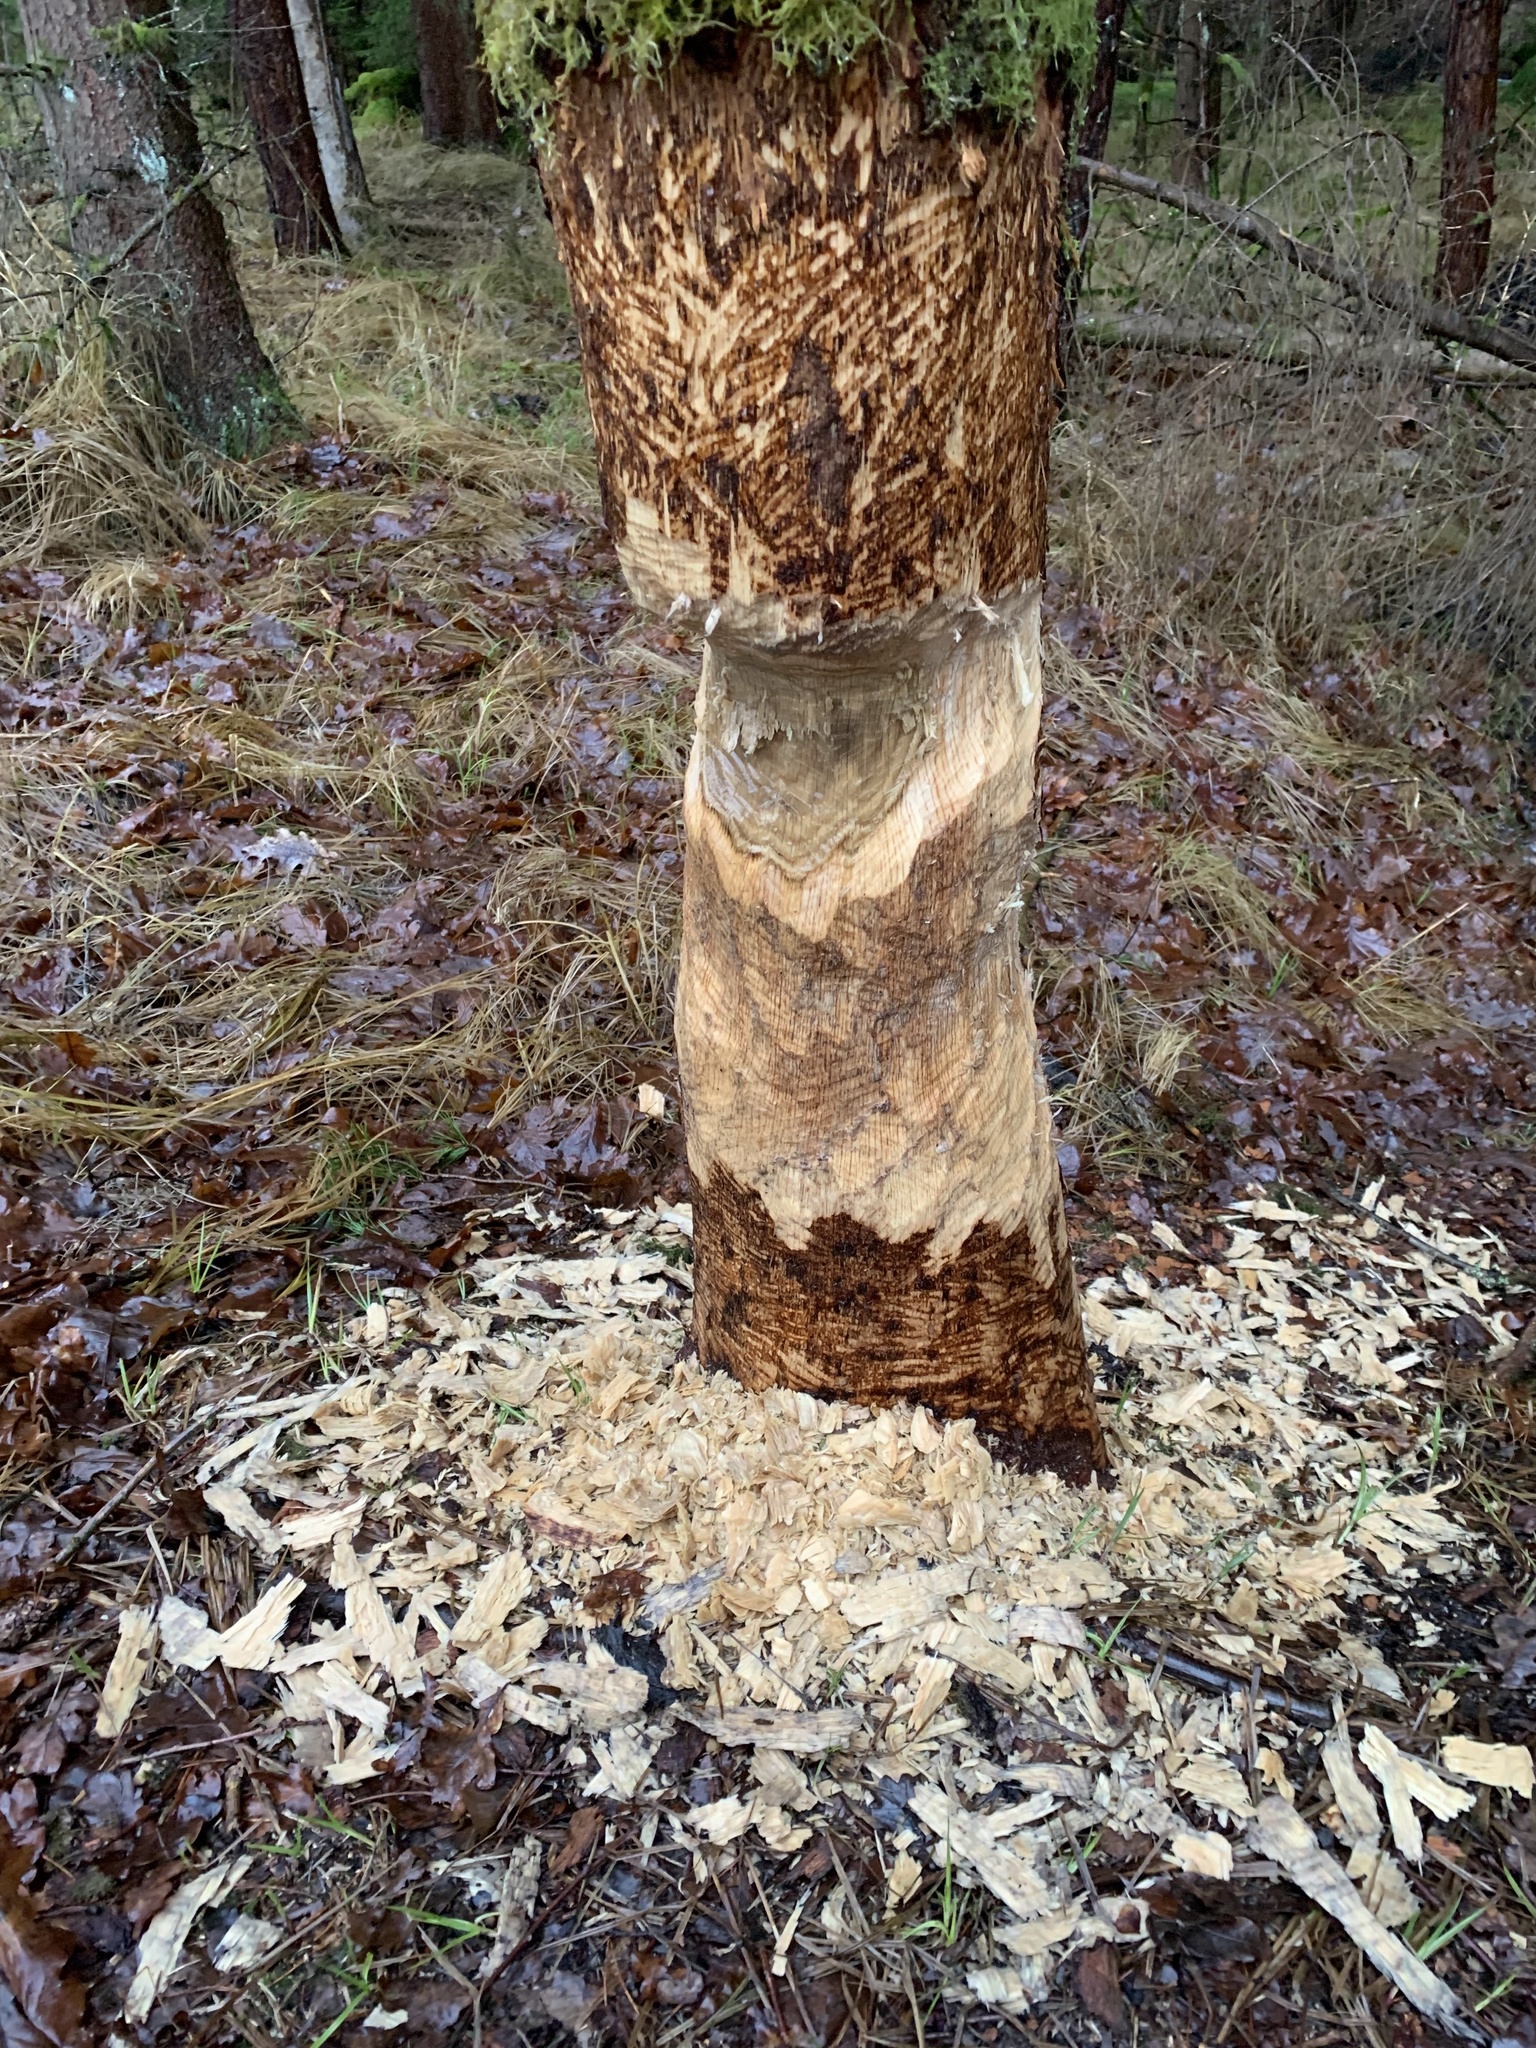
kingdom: Animalia
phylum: Chordata
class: Mammalia
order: Rodentia
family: Castoridae
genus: Castor
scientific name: Castor fiber
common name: Eurasian beaver
